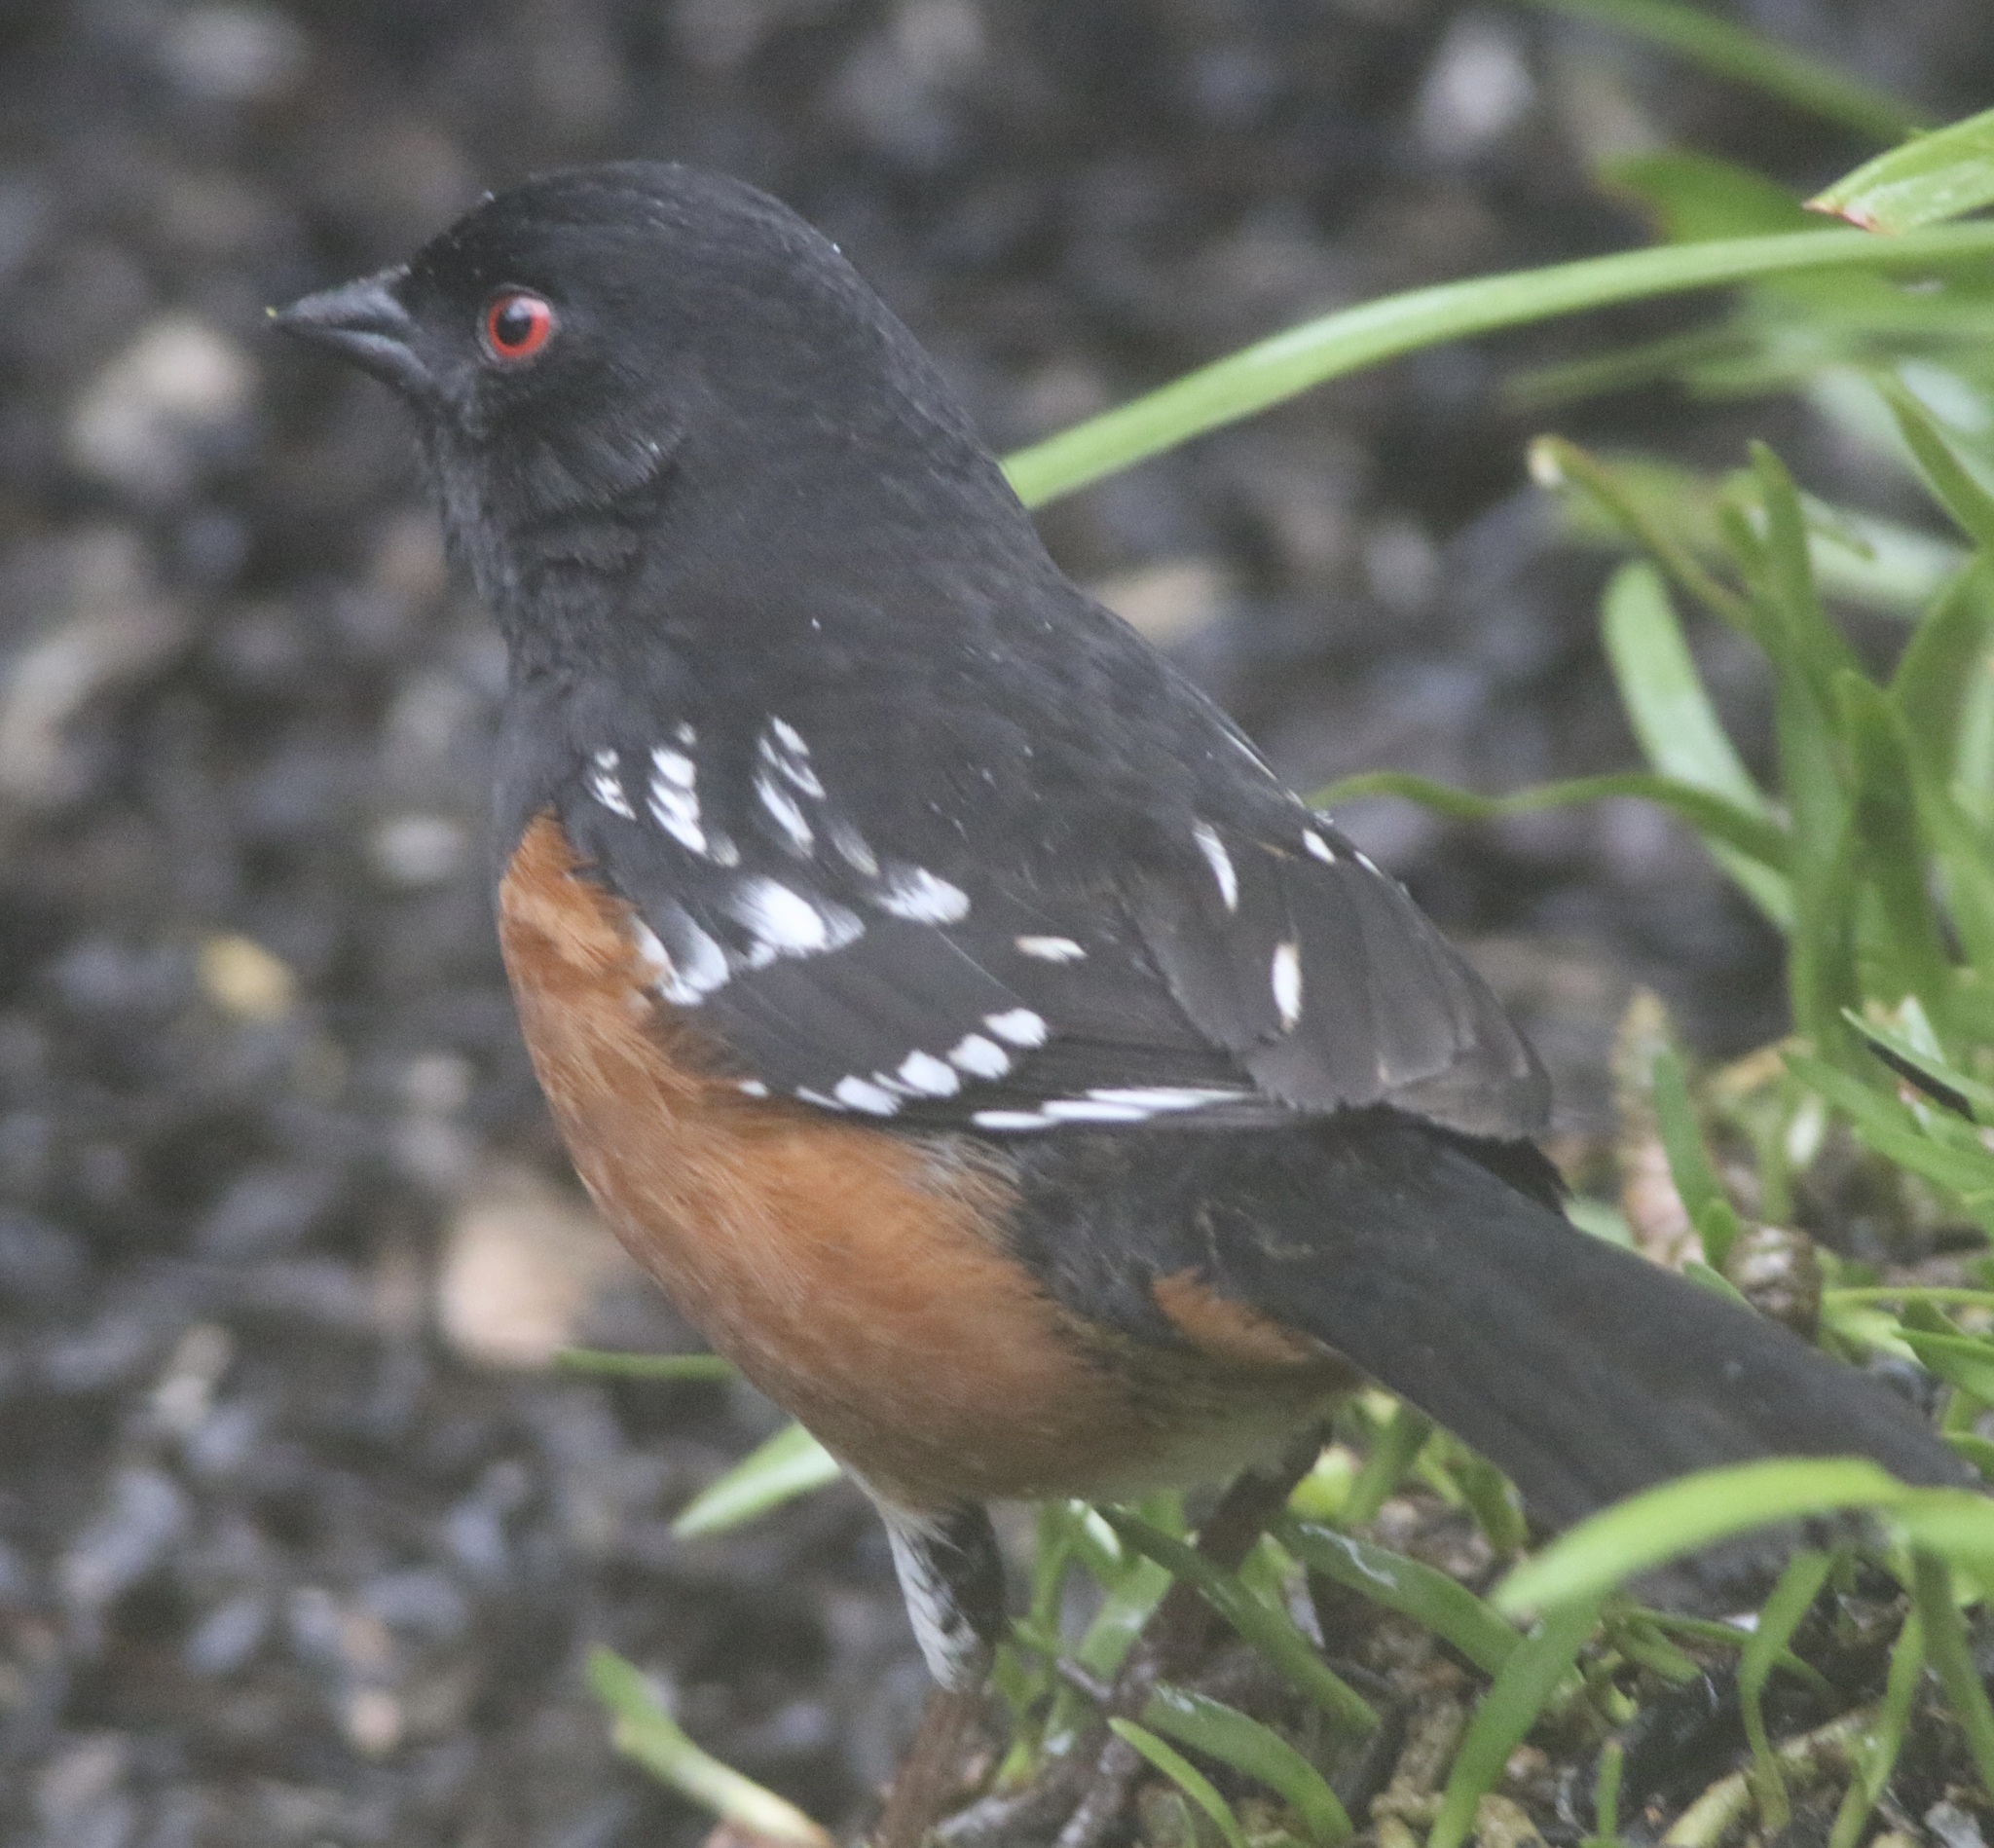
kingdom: Animalia
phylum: Chordata
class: Aves
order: Passeriformes
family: Passerellidae
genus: Pipilo
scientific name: Pipilo maculatus
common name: Spotted towhee
